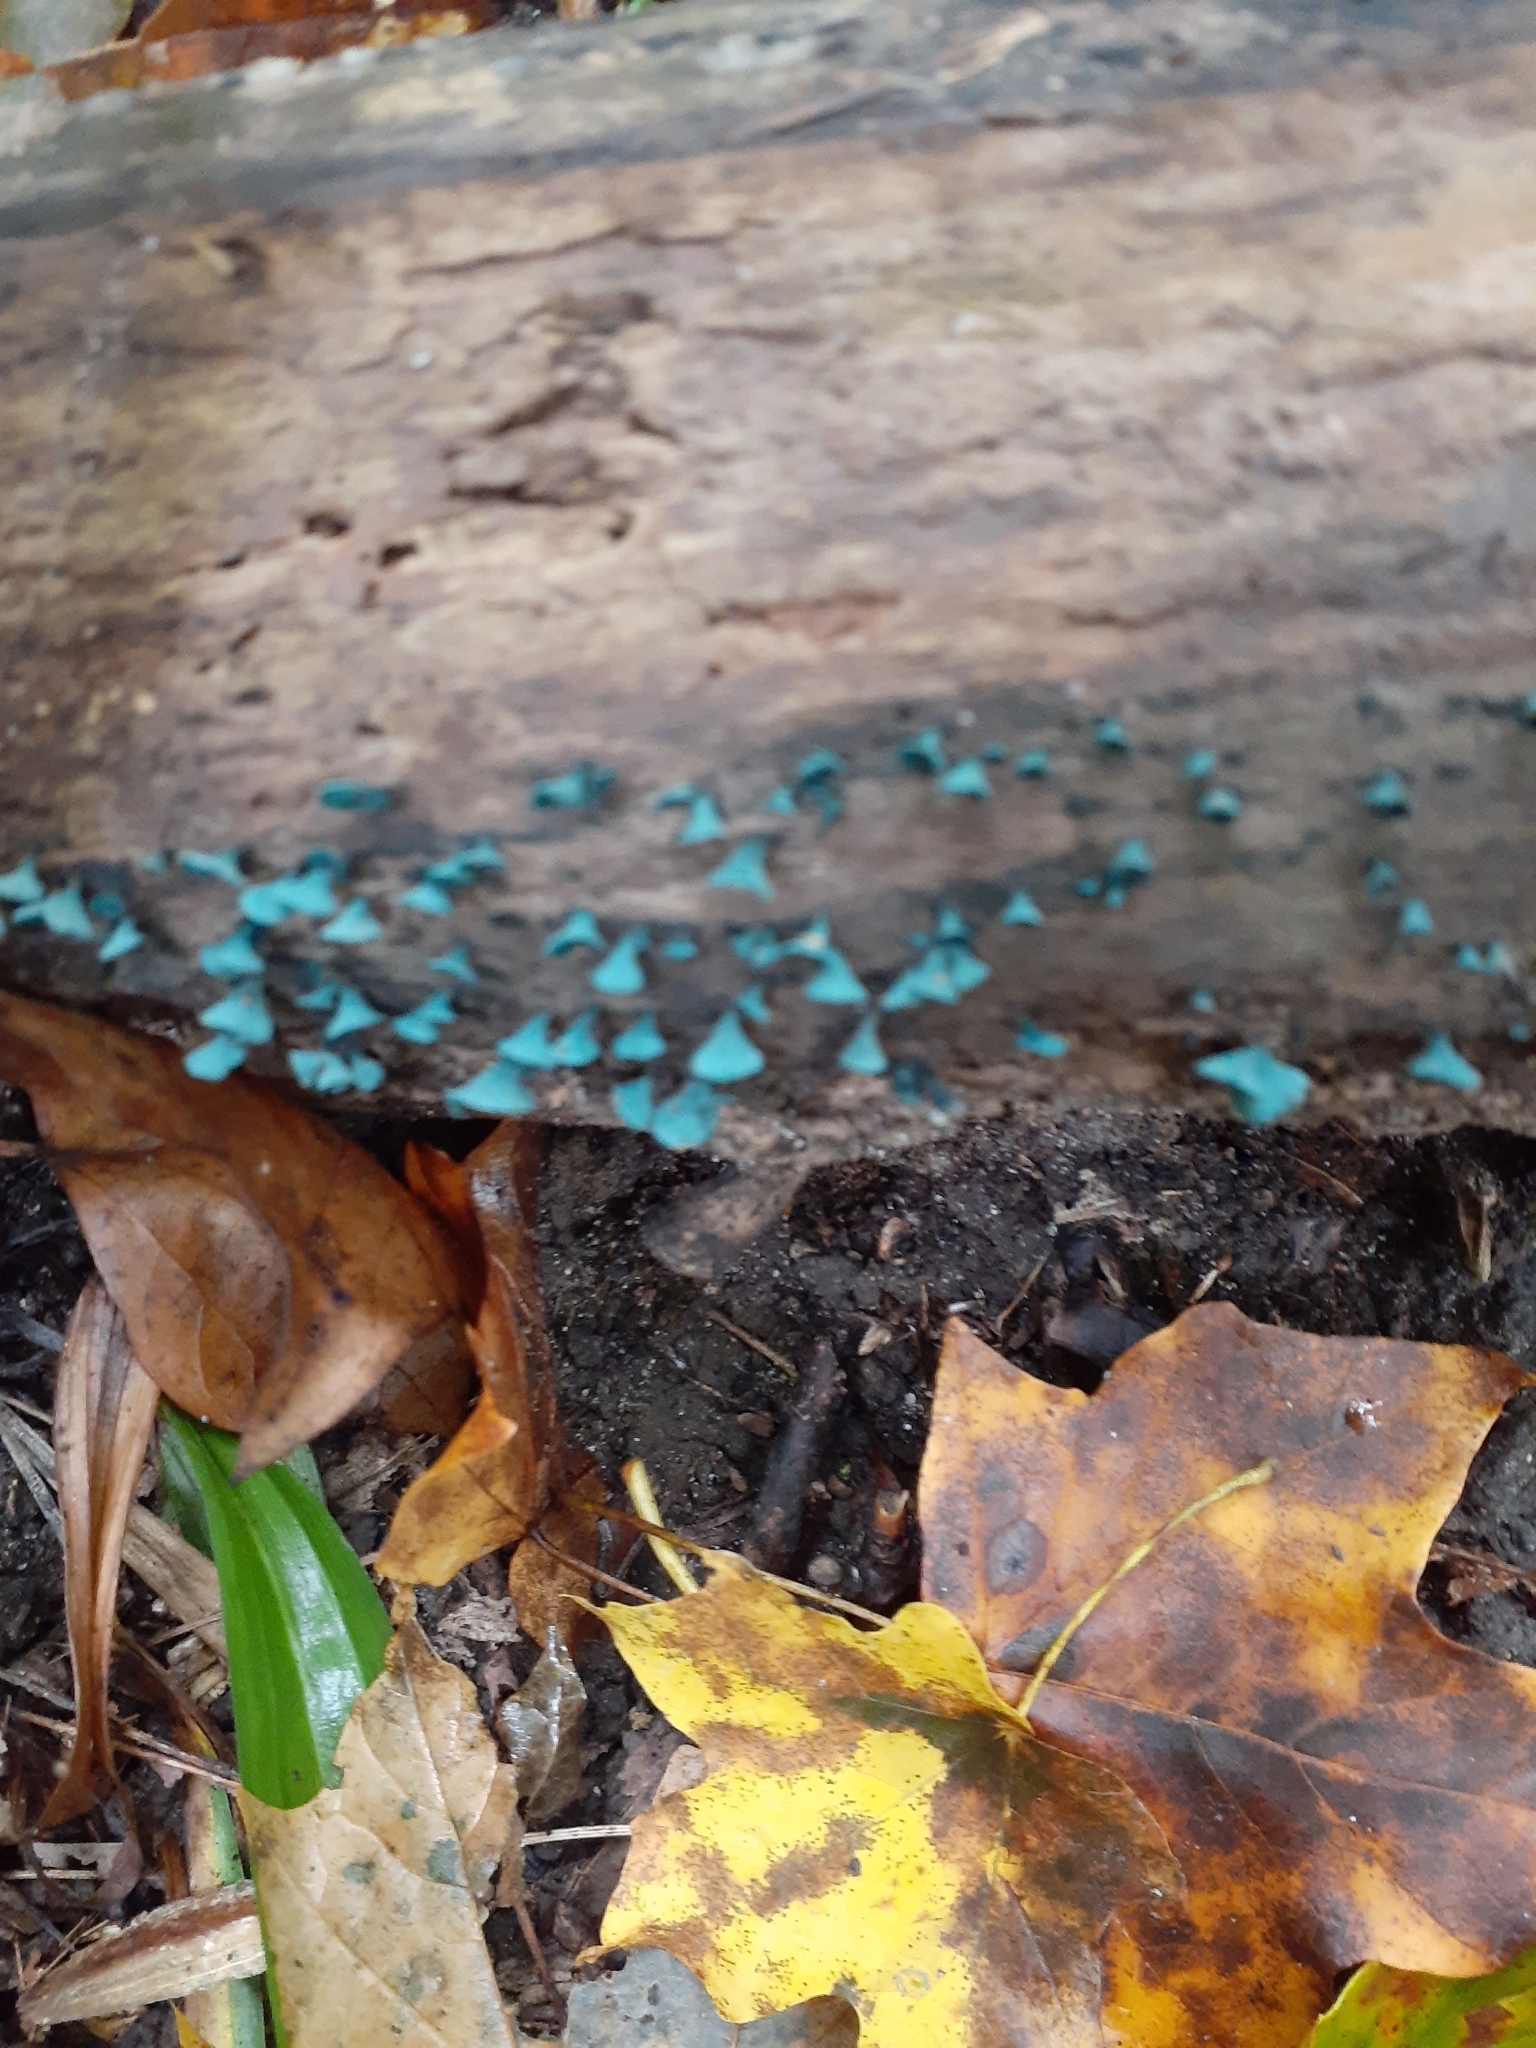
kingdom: Fungi
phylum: Ascomycota
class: Leotiomycetes
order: Helotiales
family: Chlorociboriaceae
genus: Chlorociboria
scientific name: Chlorociboria aeruginascens
